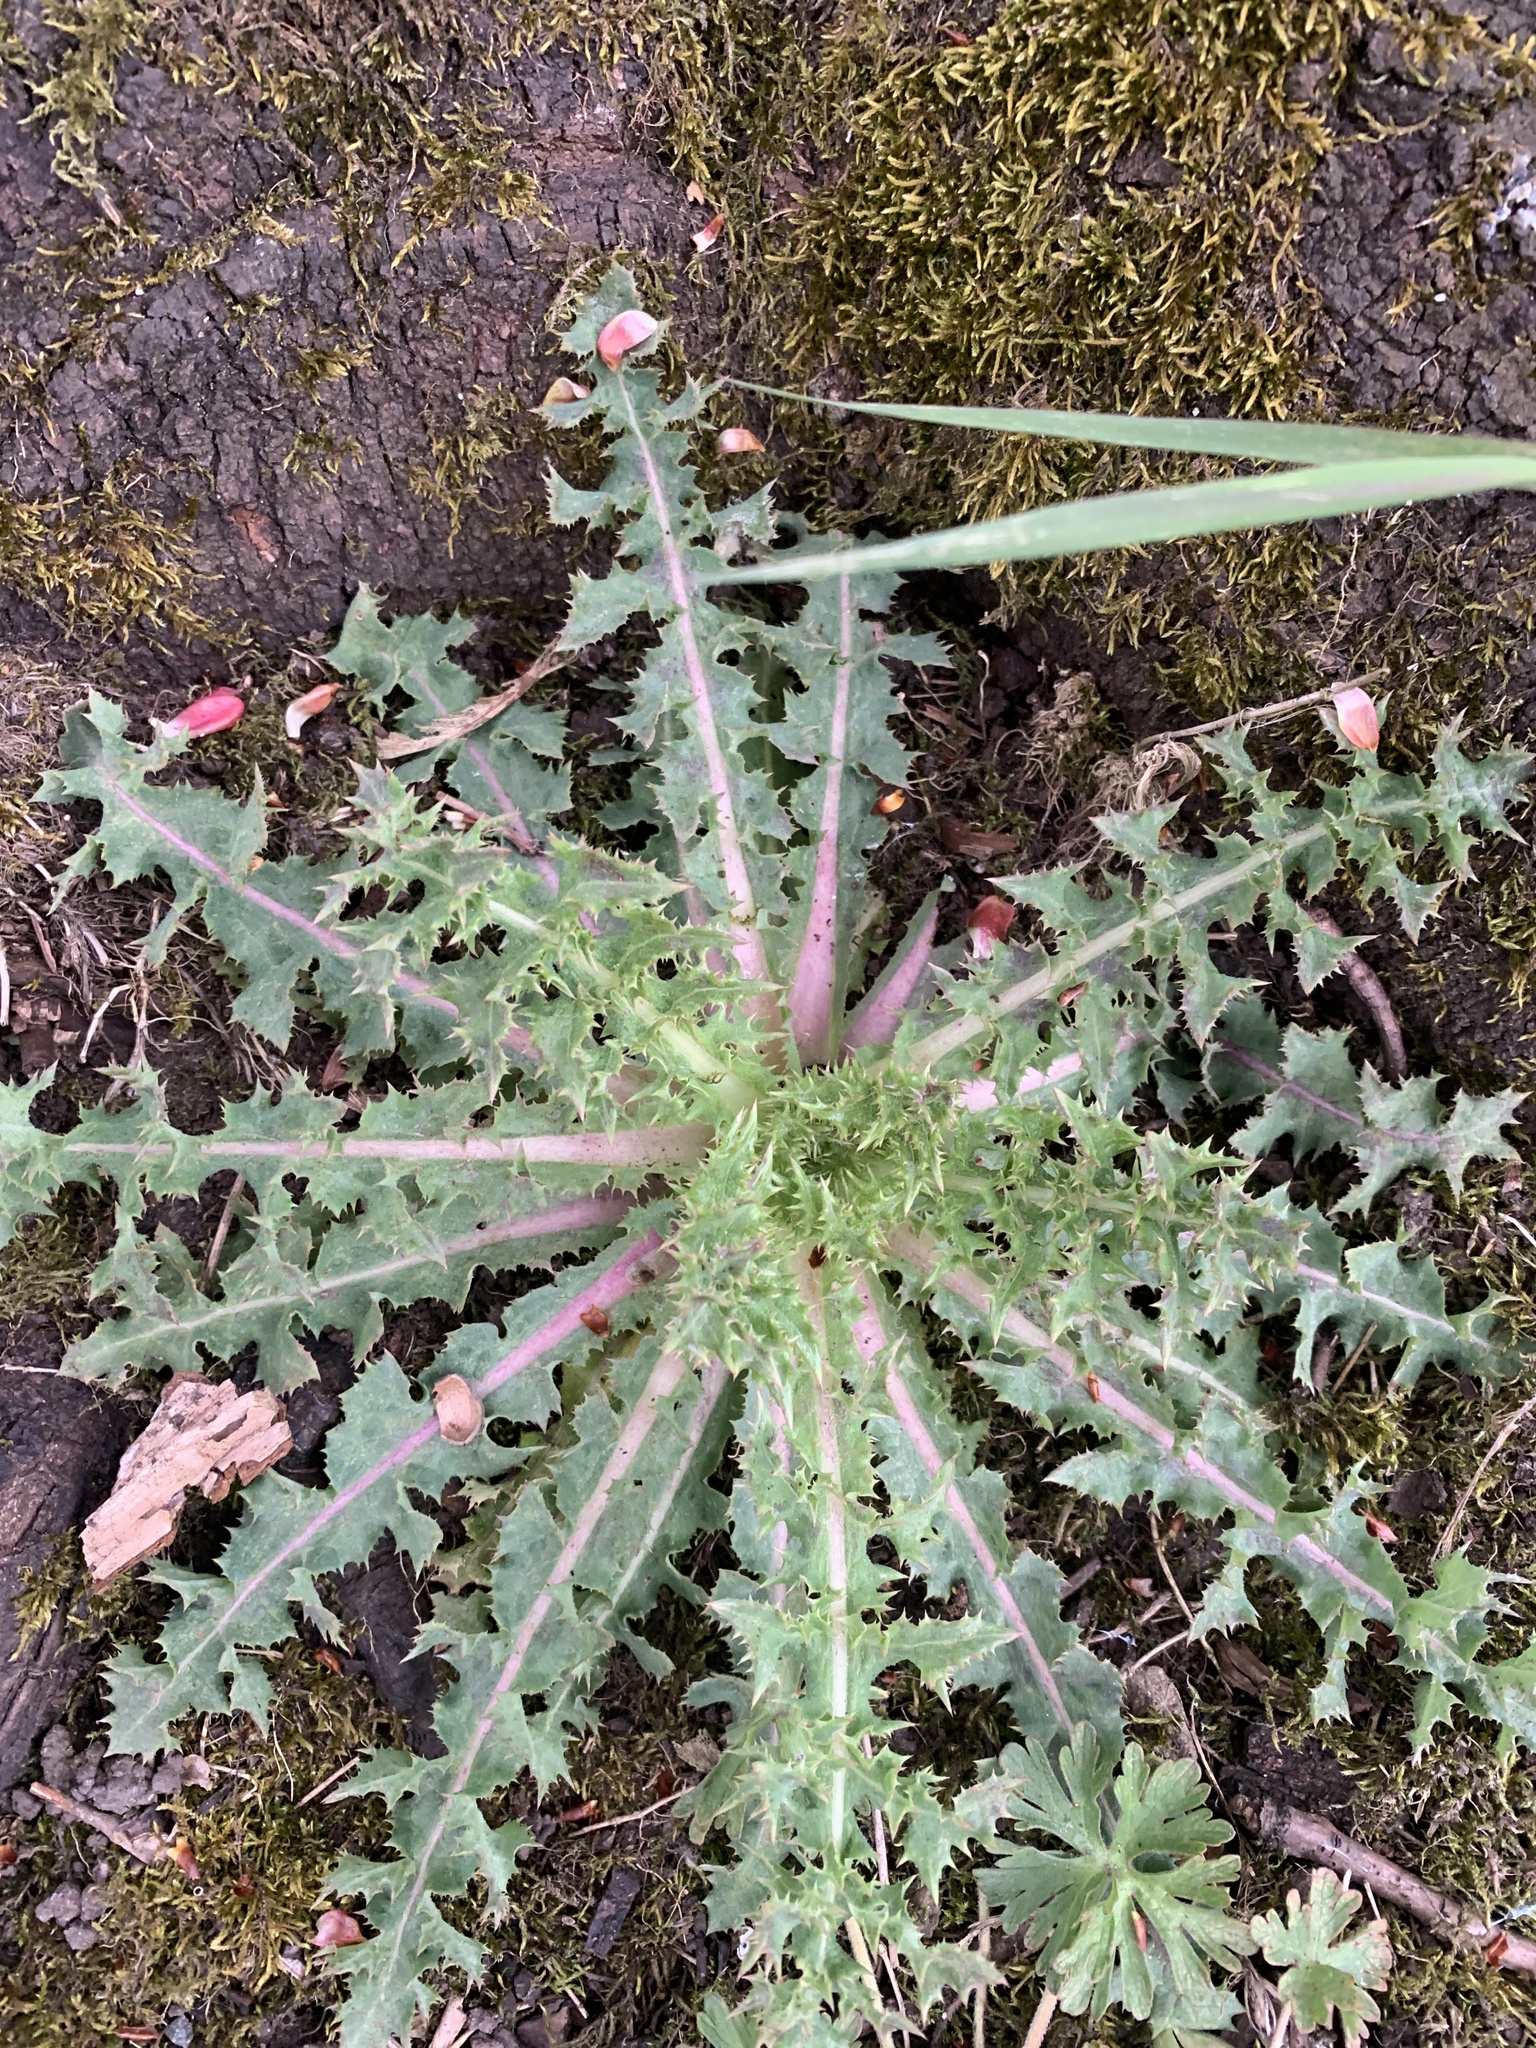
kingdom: Plantae
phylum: Tracheophyta
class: Magnoliopsida
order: Asterales
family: Asteraceae
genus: Sonchus
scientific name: Sonchus asper
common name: Prickly sow-thistle
